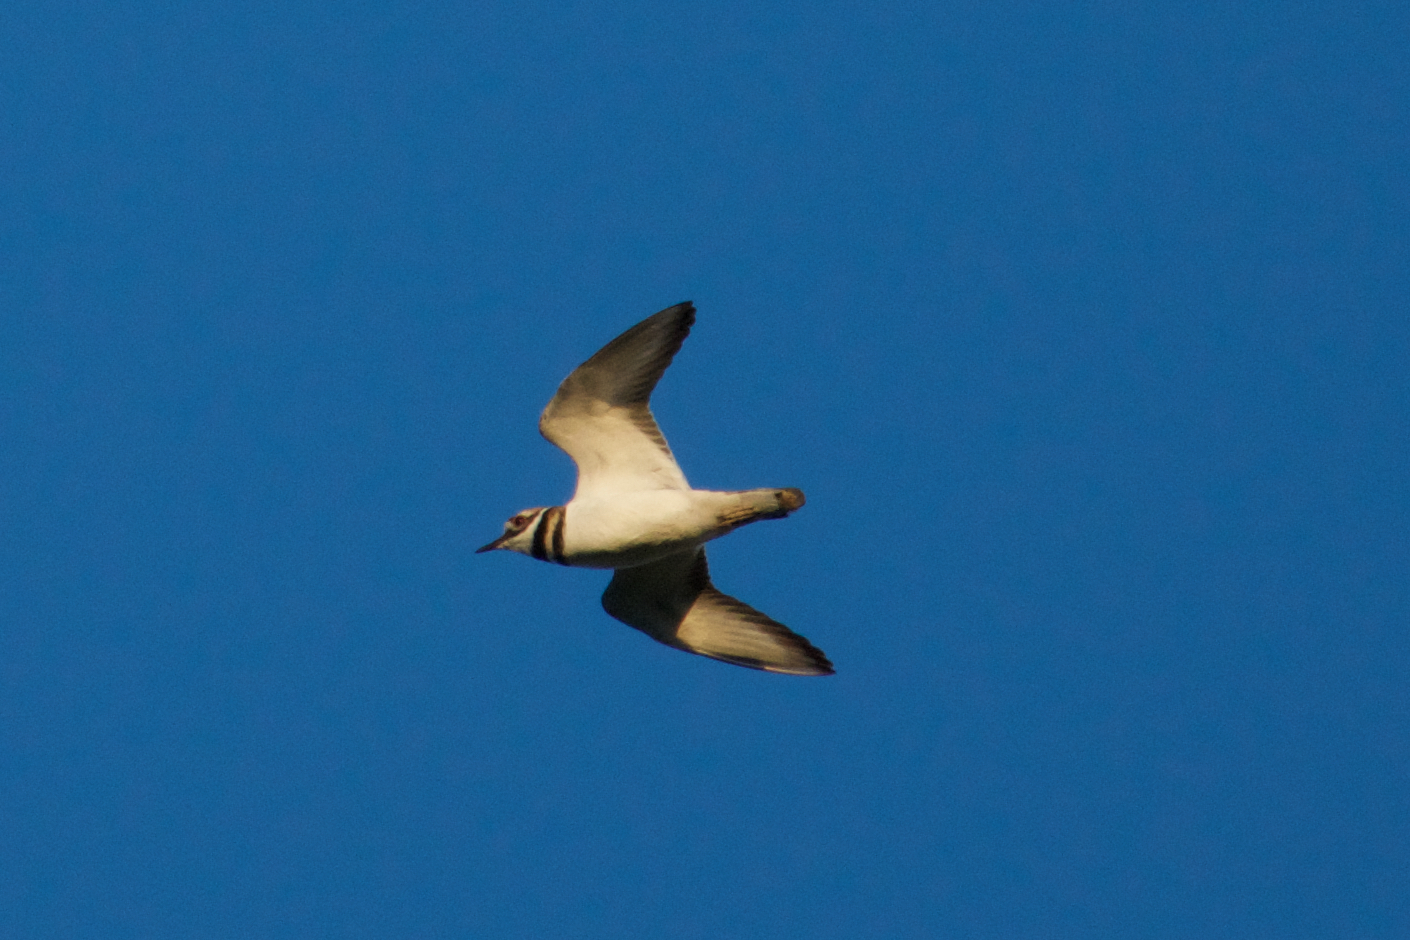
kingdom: Animalia
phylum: Chordata
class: Aves
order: Charadriiformes
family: Charadriidae
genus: Charadrius
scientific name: Charadrius vociferus
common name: Killdeer
